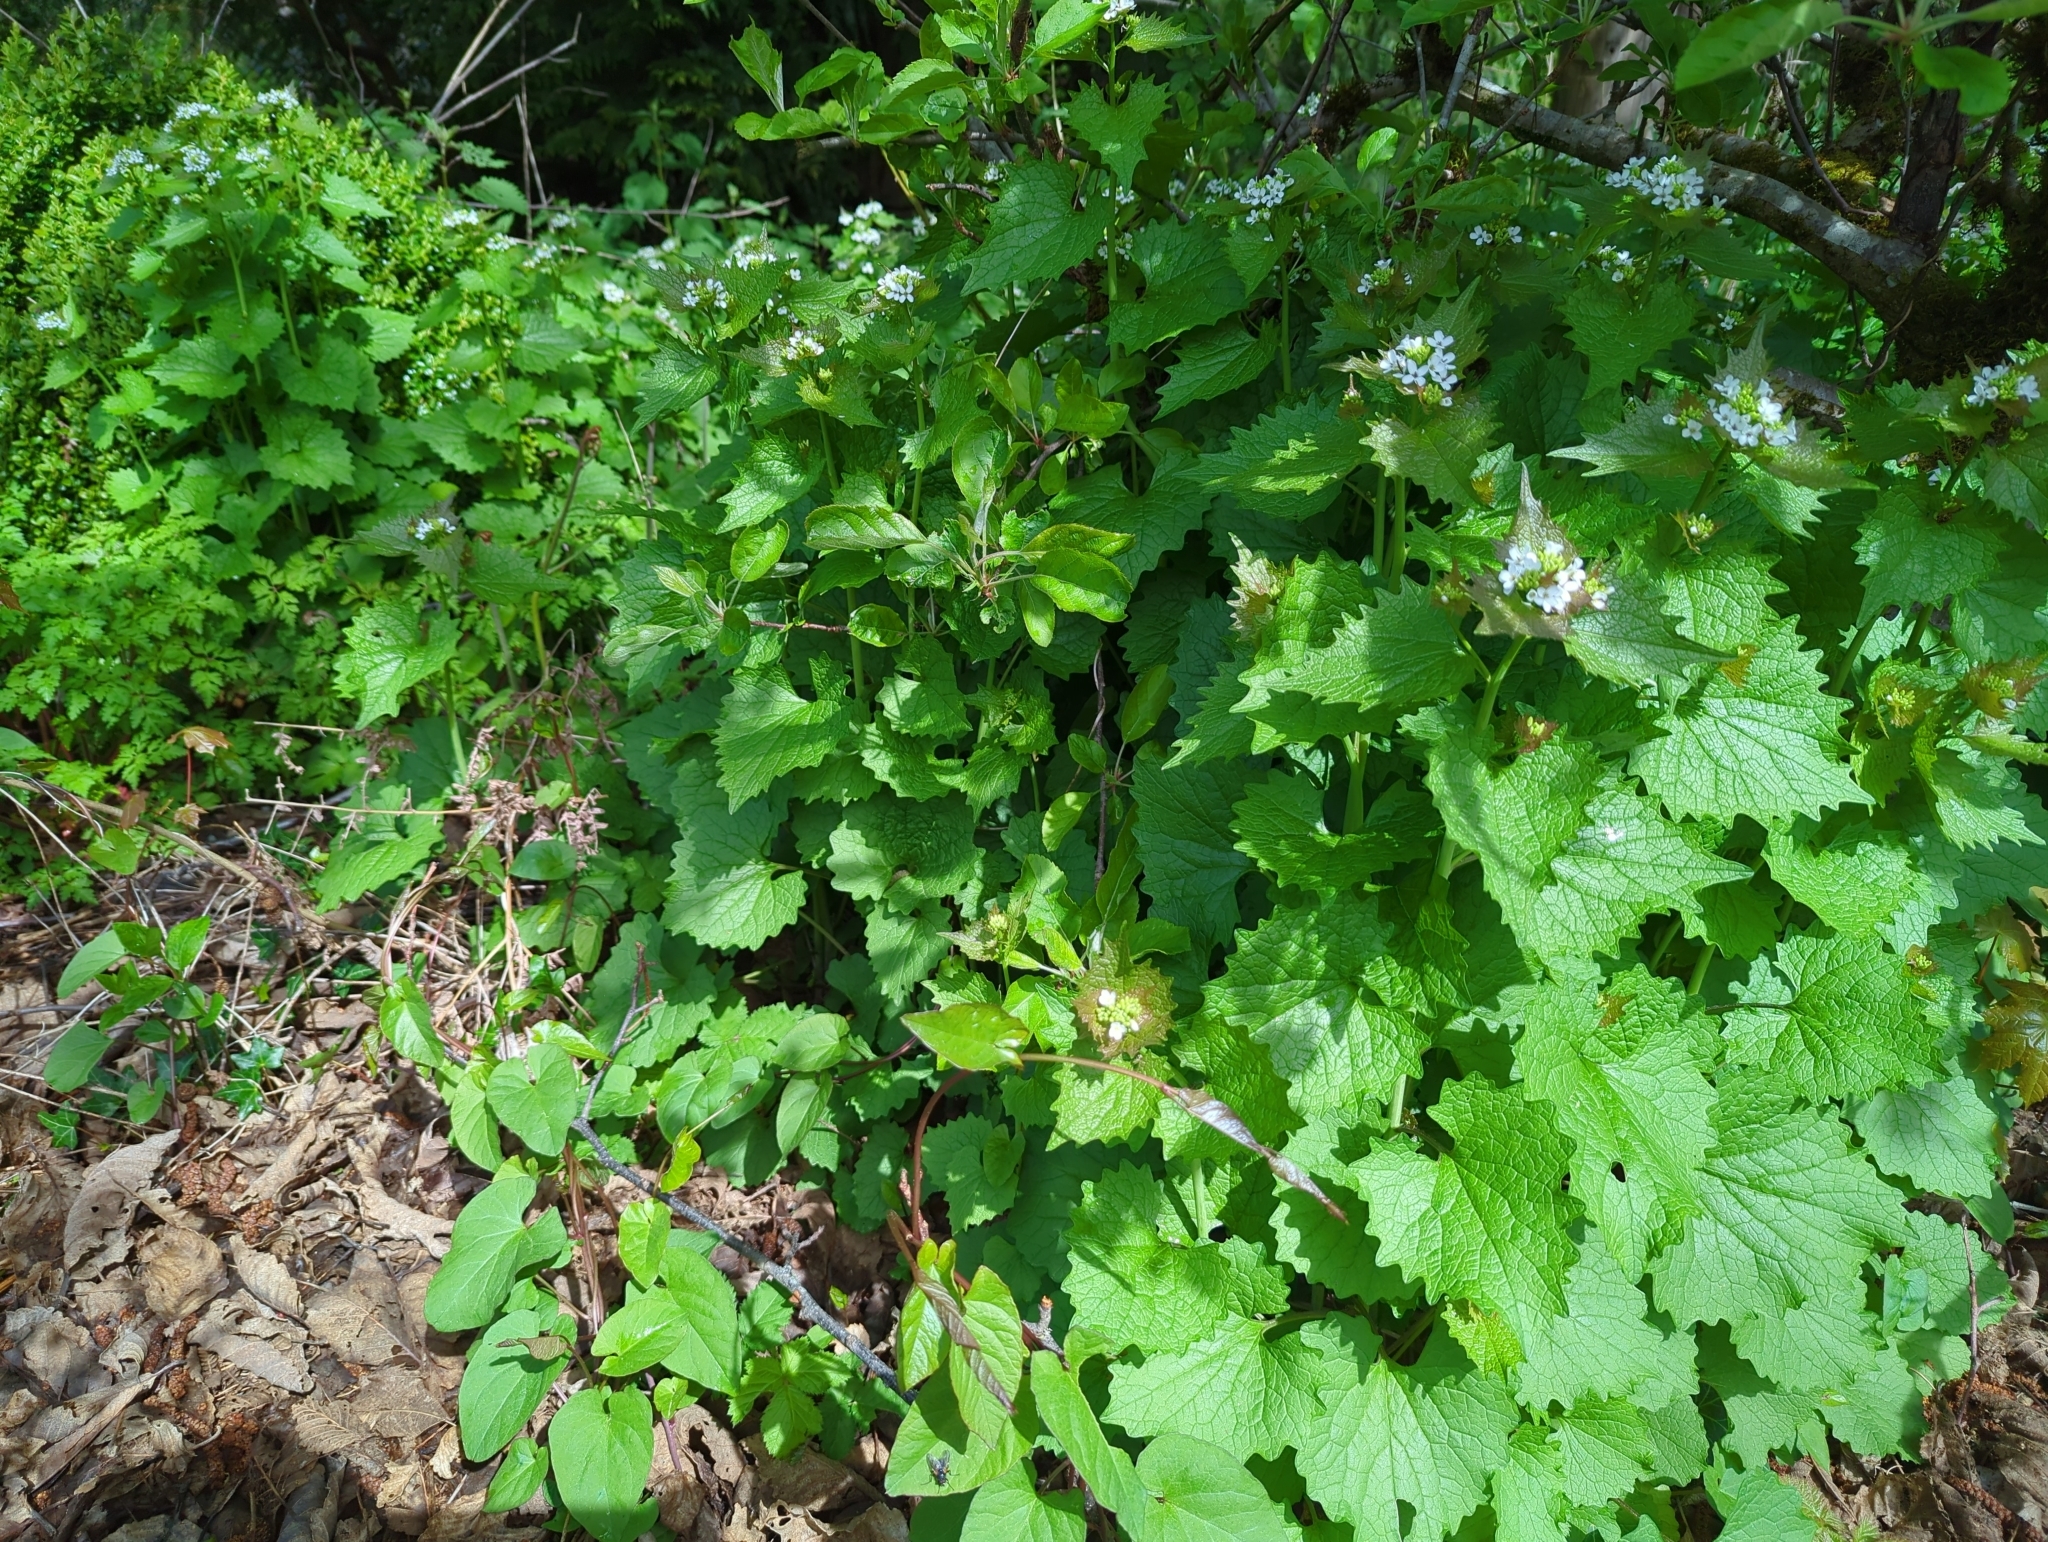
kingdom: Plantae
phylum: Tracheophyta
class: Magnoliopsida
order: Brassicales
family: Brassicaceae
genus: Alliaria
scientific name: Alliaria petiolata
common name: Garlic mustard
